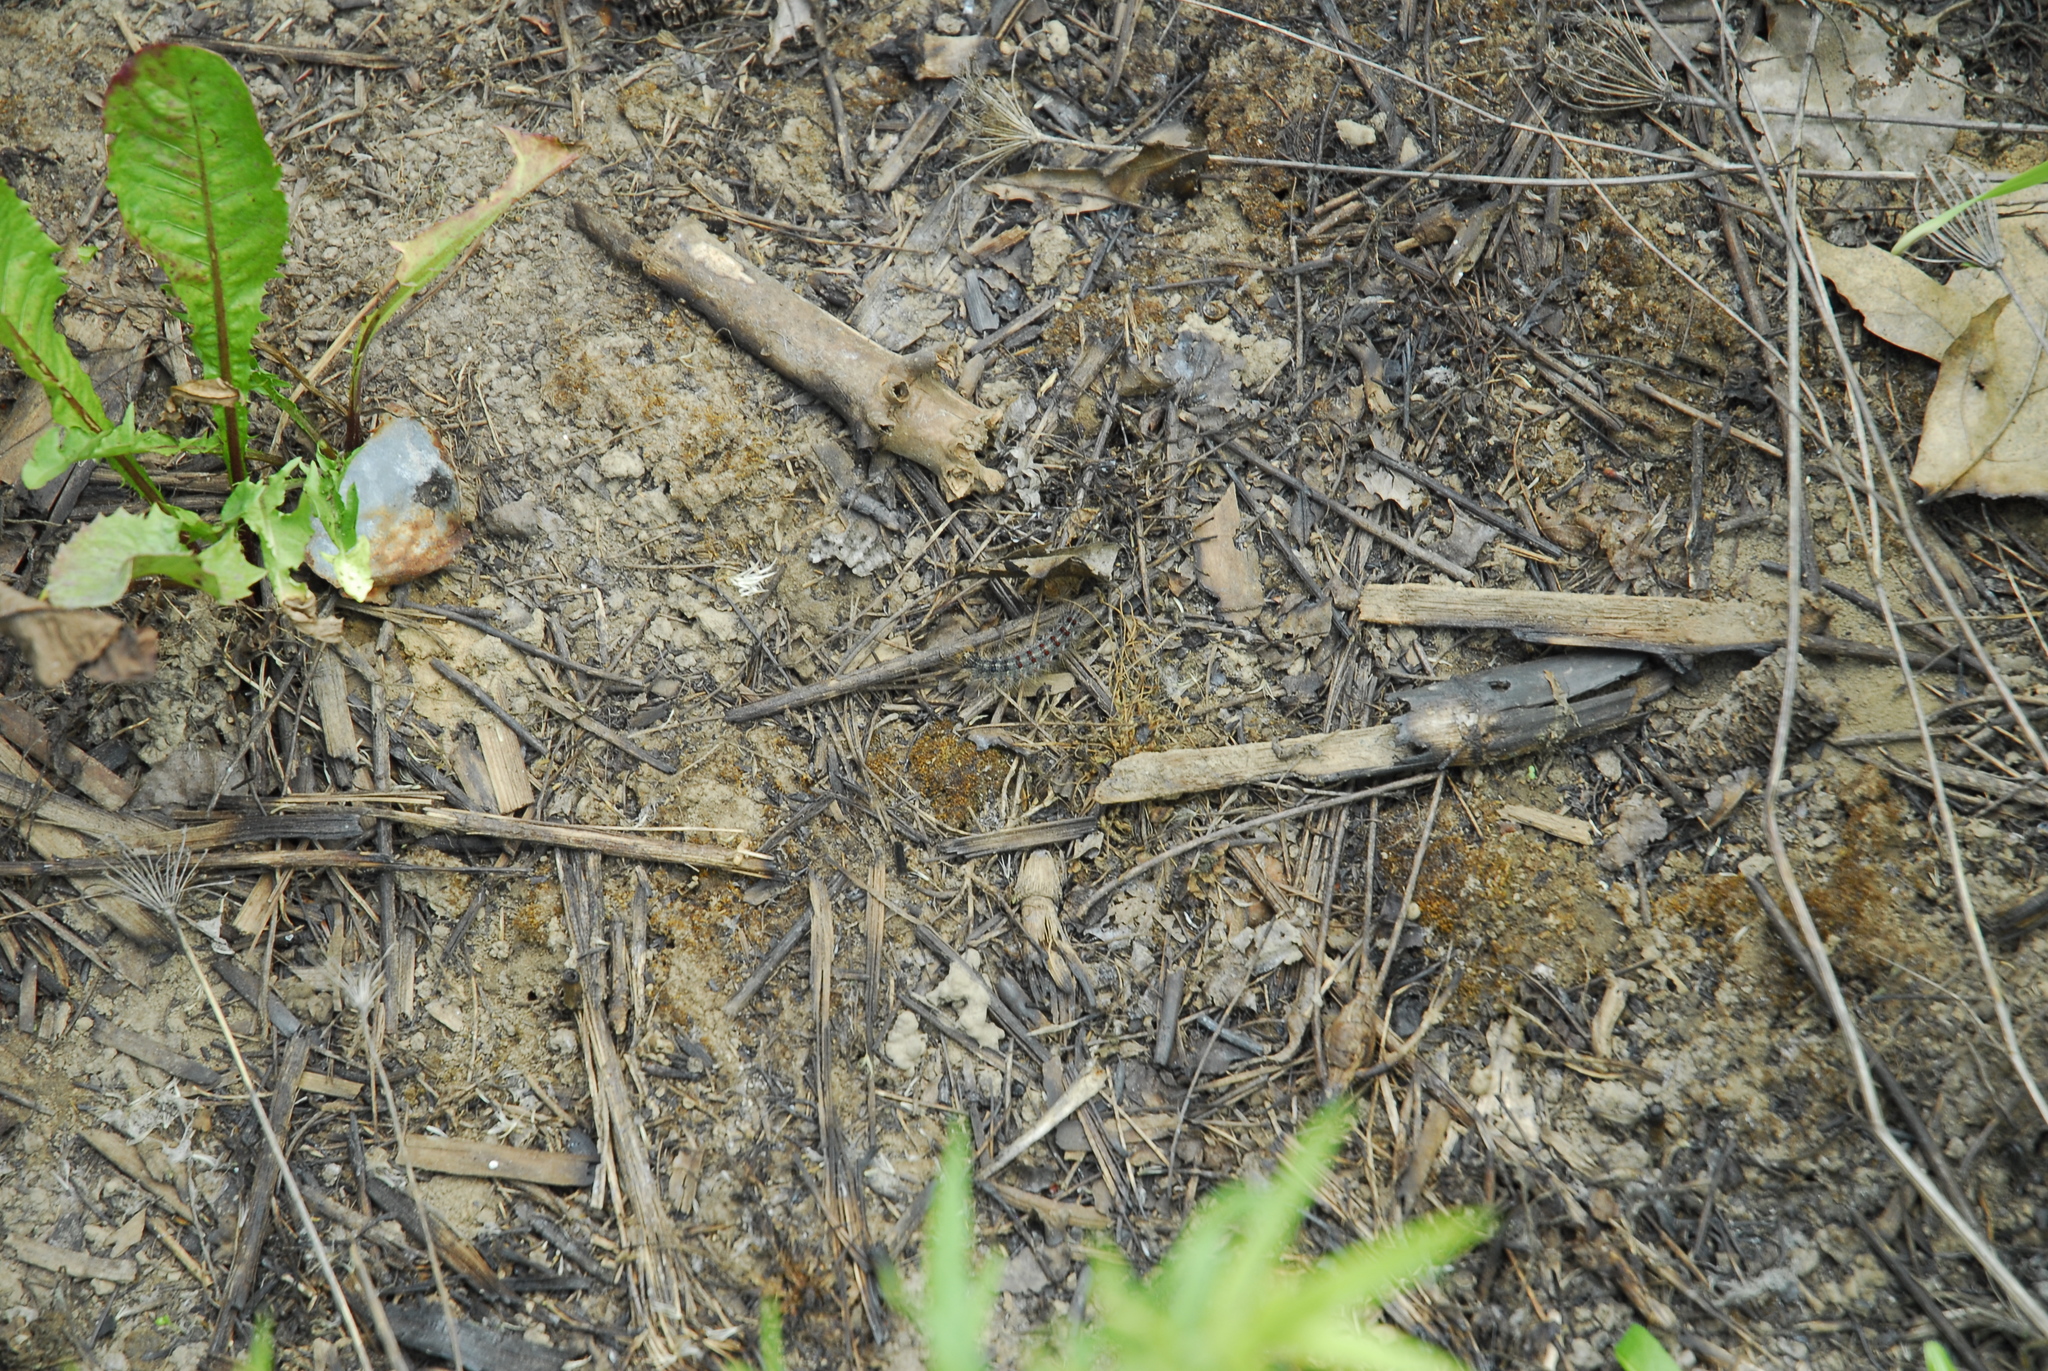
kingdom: Animalia
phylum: Arthropoda
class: Insecta
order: Lepidoptera
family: Erebidae
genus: Lymantria
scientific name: Lymantria dispar
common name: Gypsy moth
